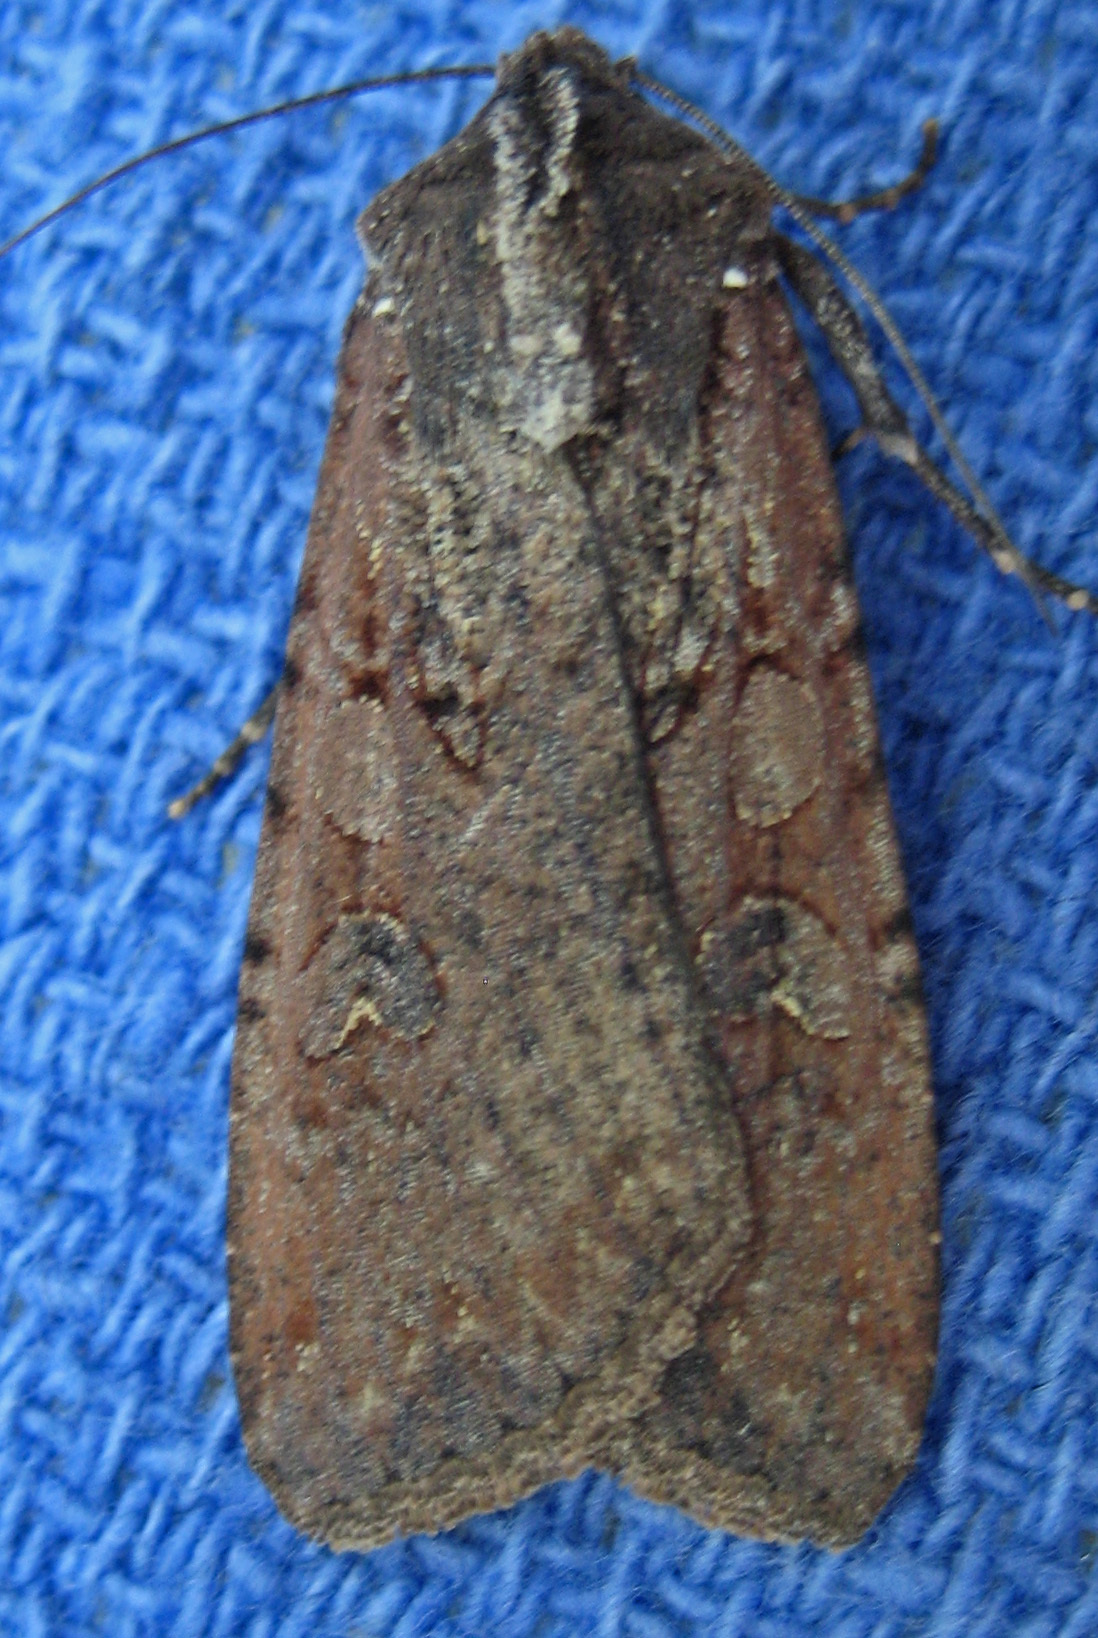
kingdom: Animalia
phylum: Arthropoda
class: Insecta
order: Lepidoptera
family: Noctuidae
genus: Peridroma
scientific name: Peridroma saucia
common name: Pearly underwing
